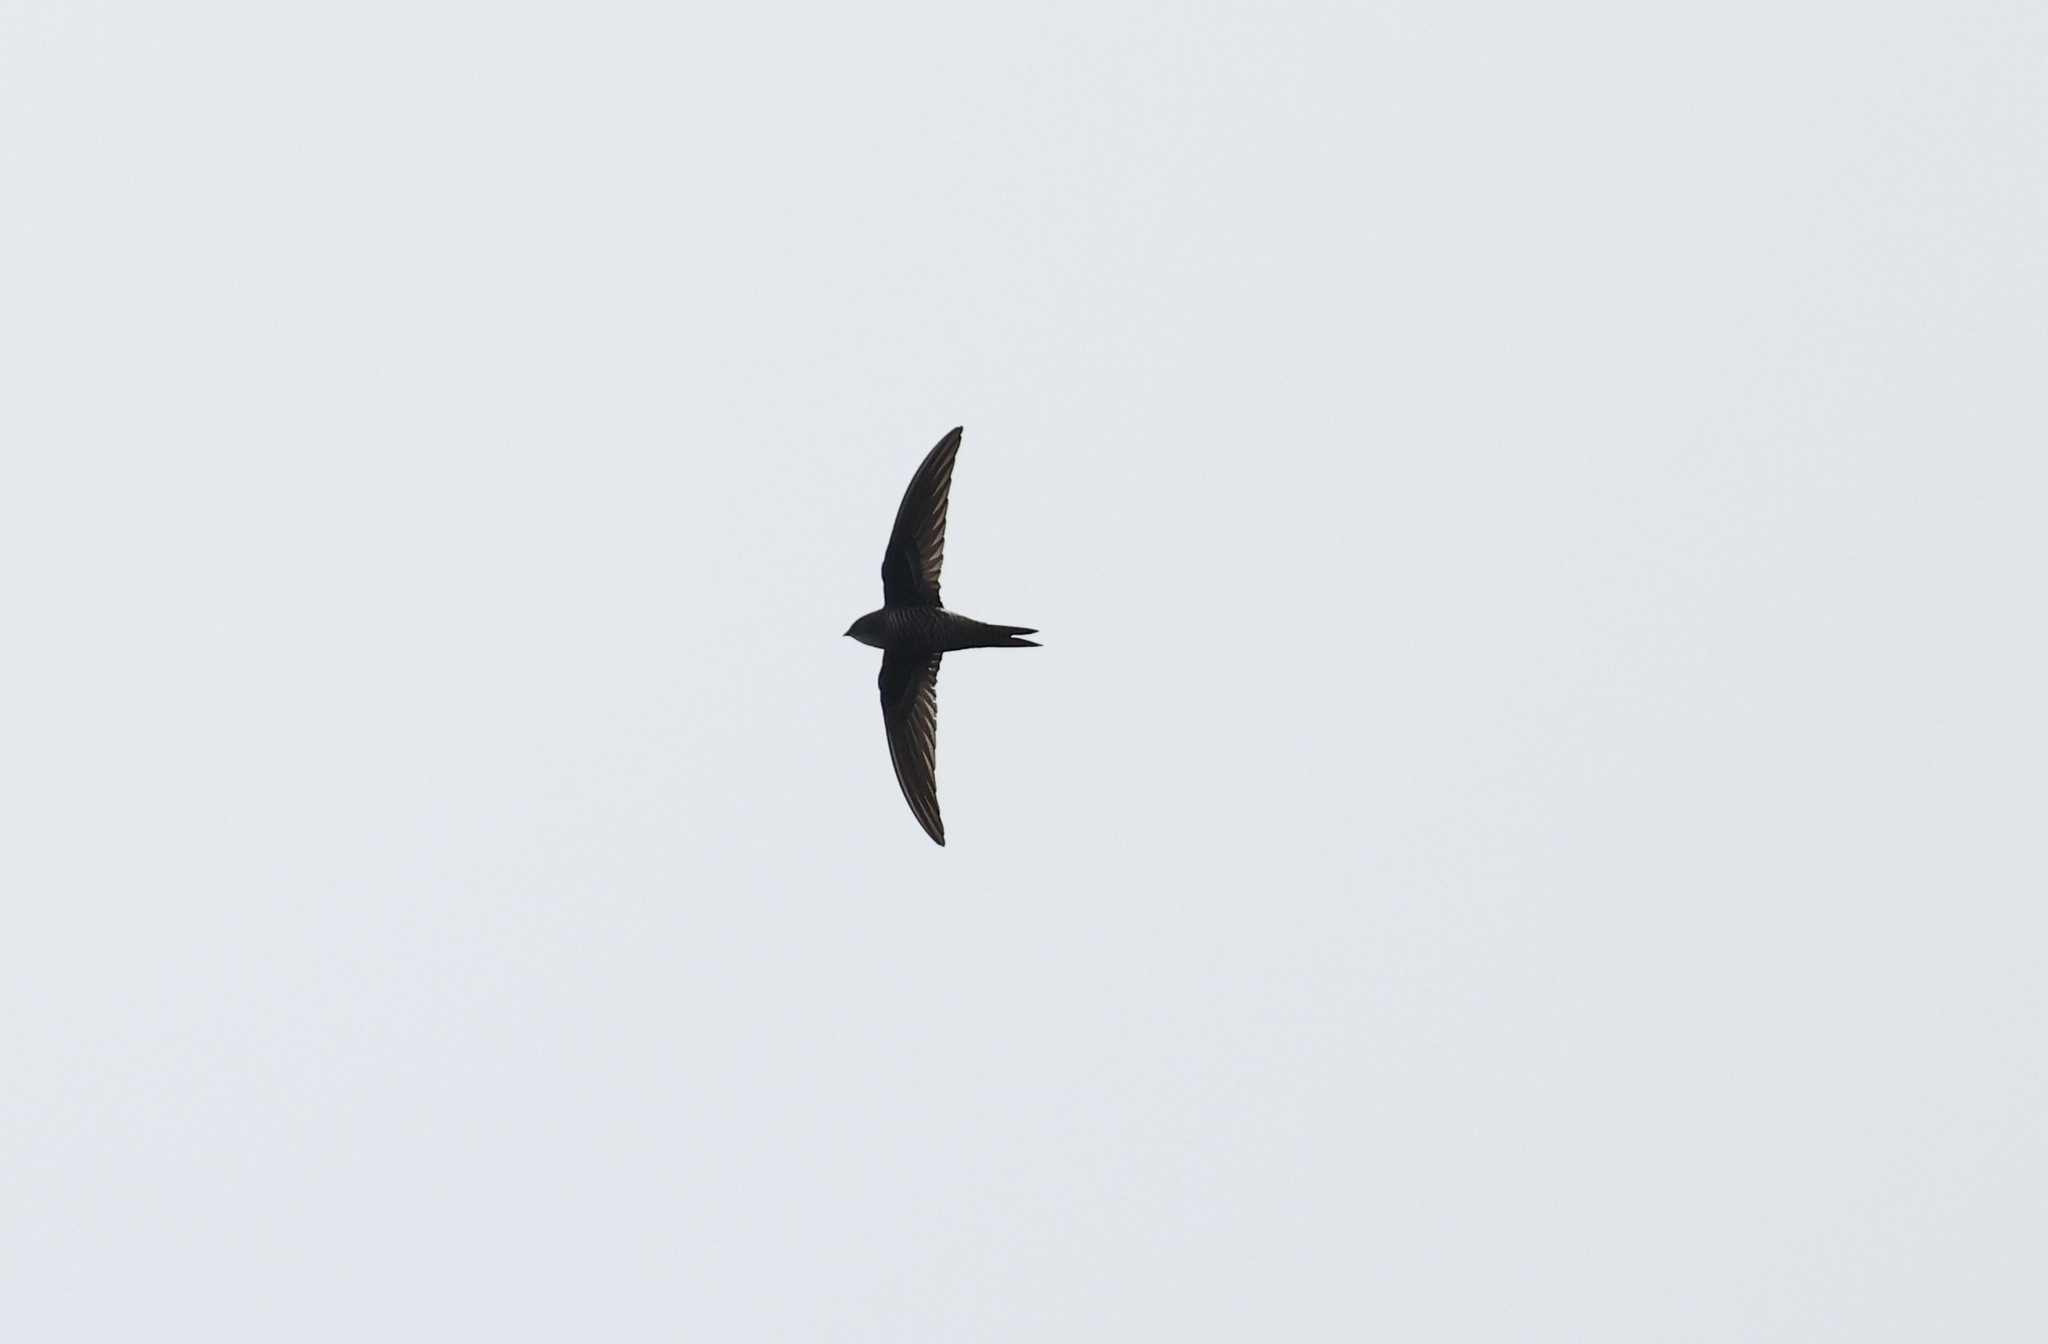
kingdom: Animalia
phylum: Chordata
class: Aves
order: Apodiformes
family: Apodidae
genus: Apus
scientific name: Apus pacificus
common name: Pacific swift
